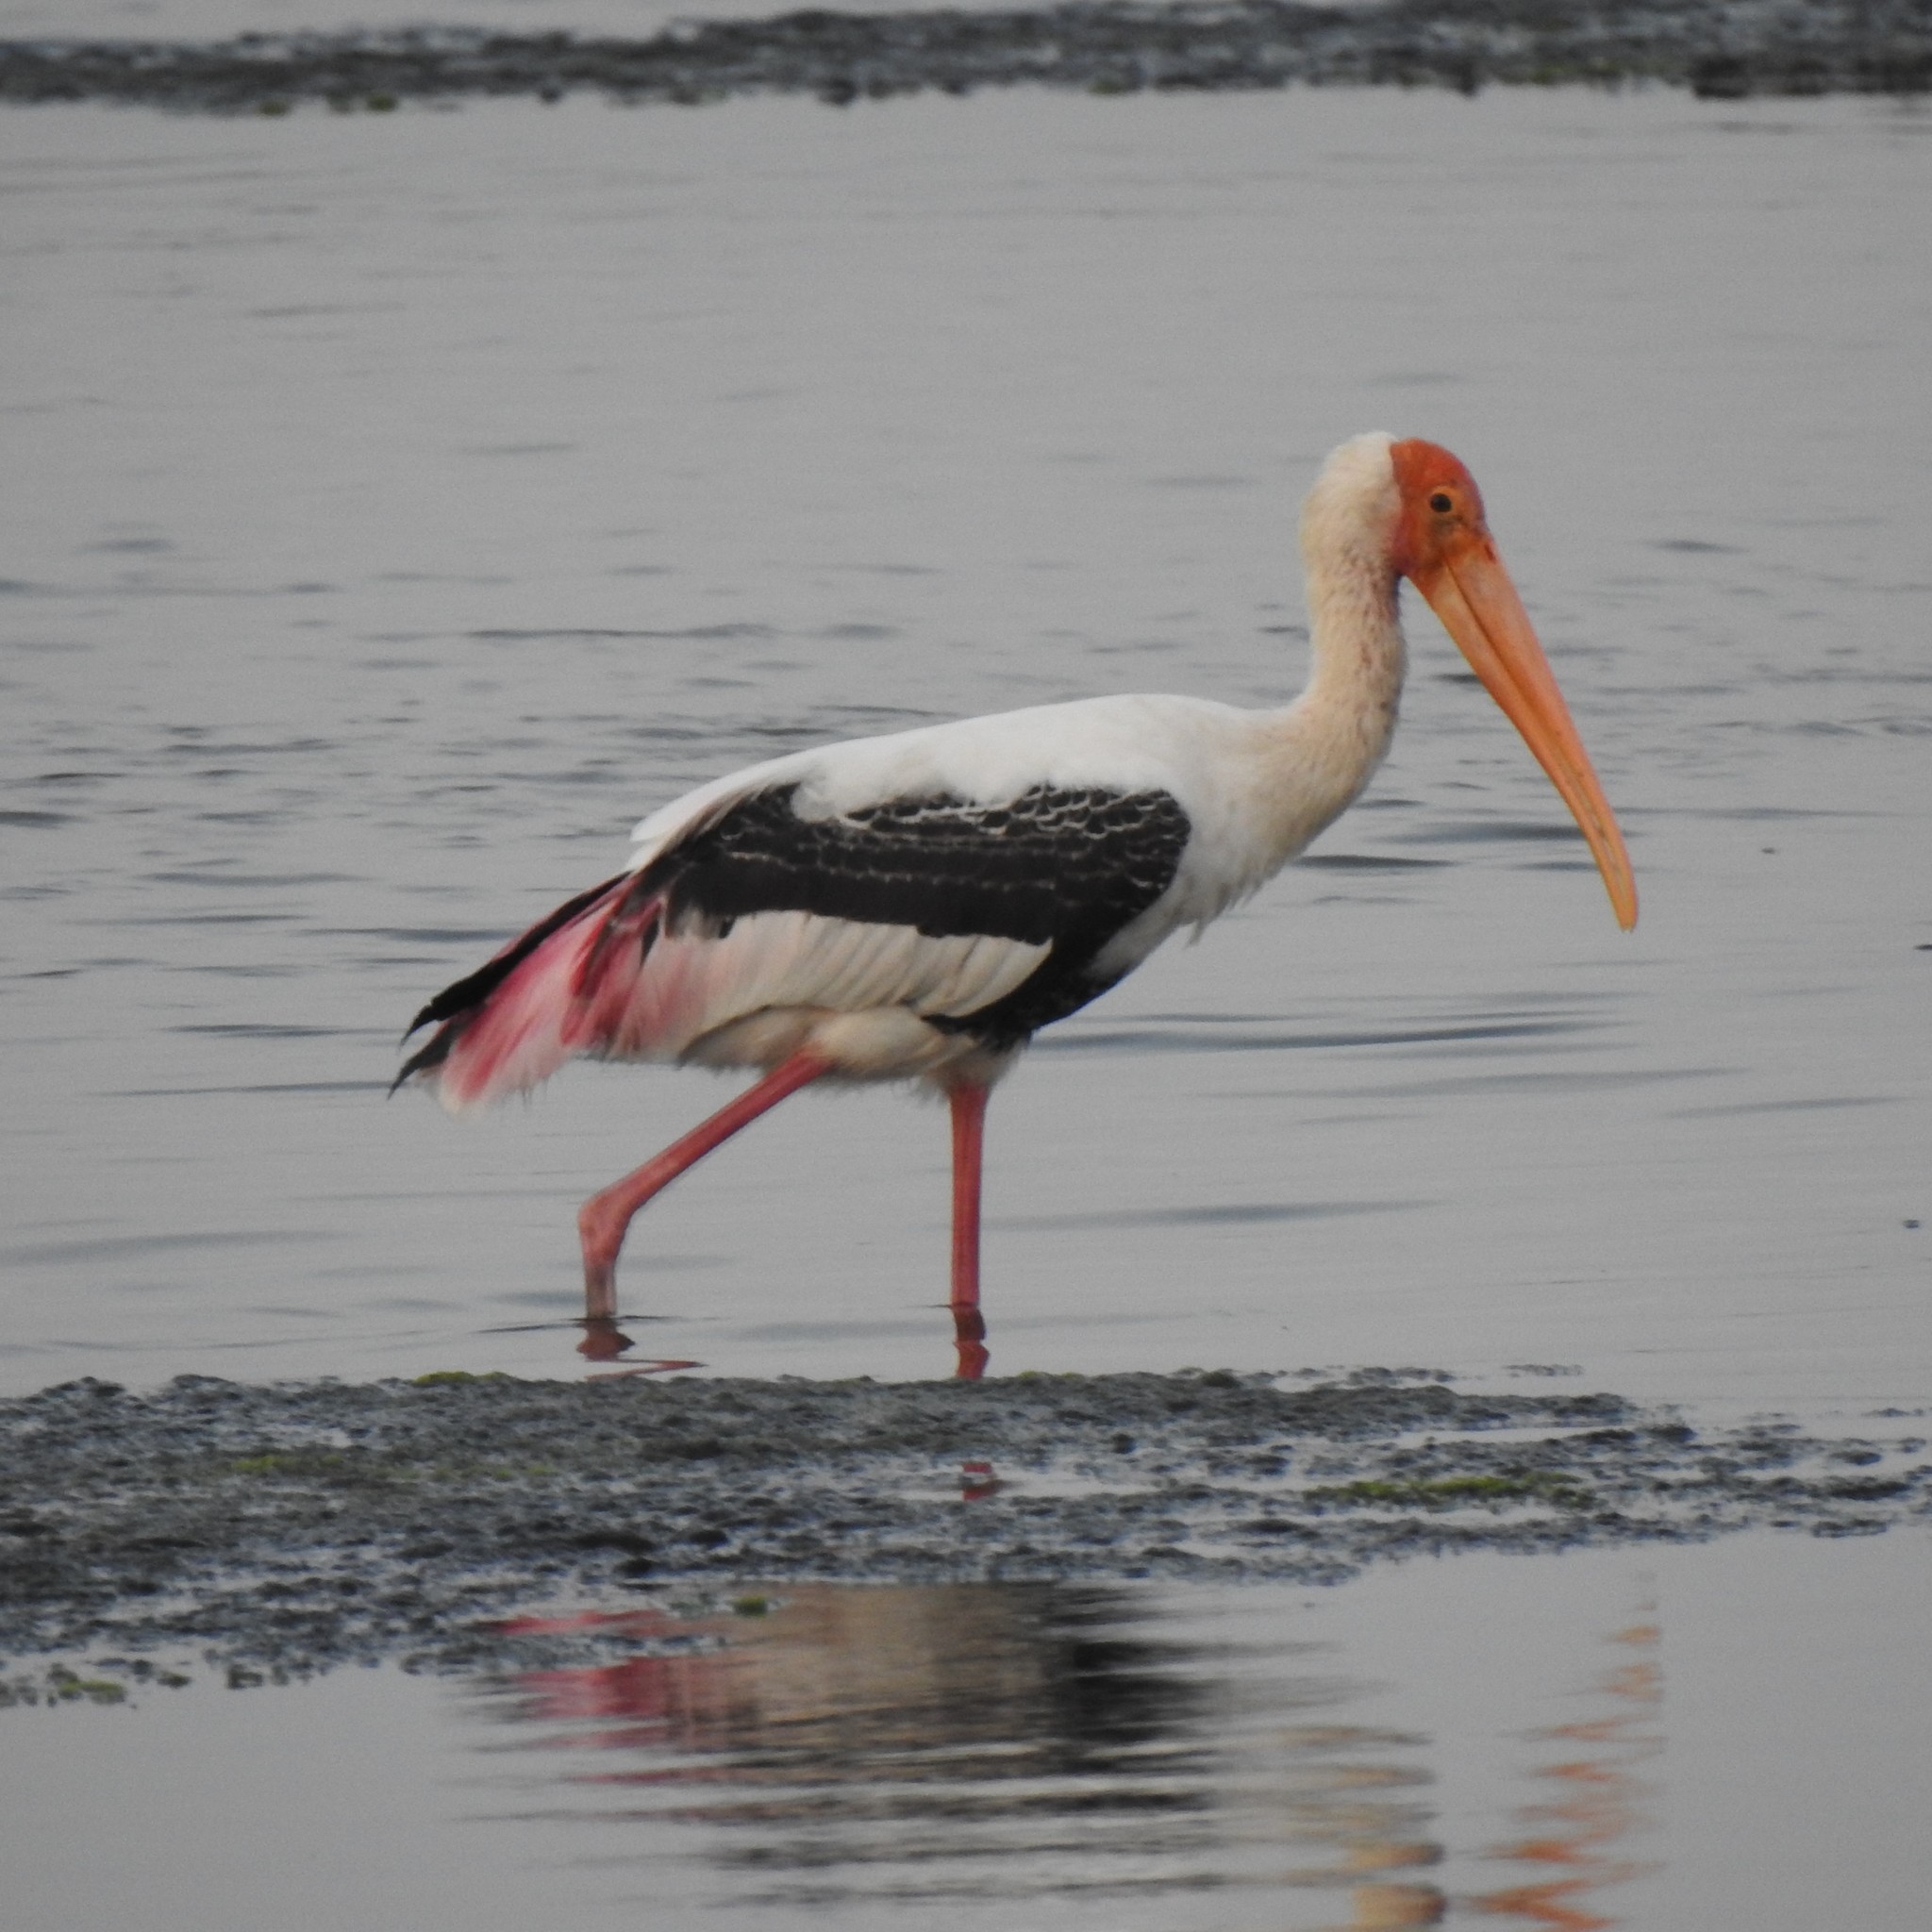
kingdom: Animalia
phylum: Chordata
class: Aves
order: Ciconiiformes
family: Ciconiidae
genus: Mycteria
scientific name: Mycteria leucocephala
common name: Painted stork
